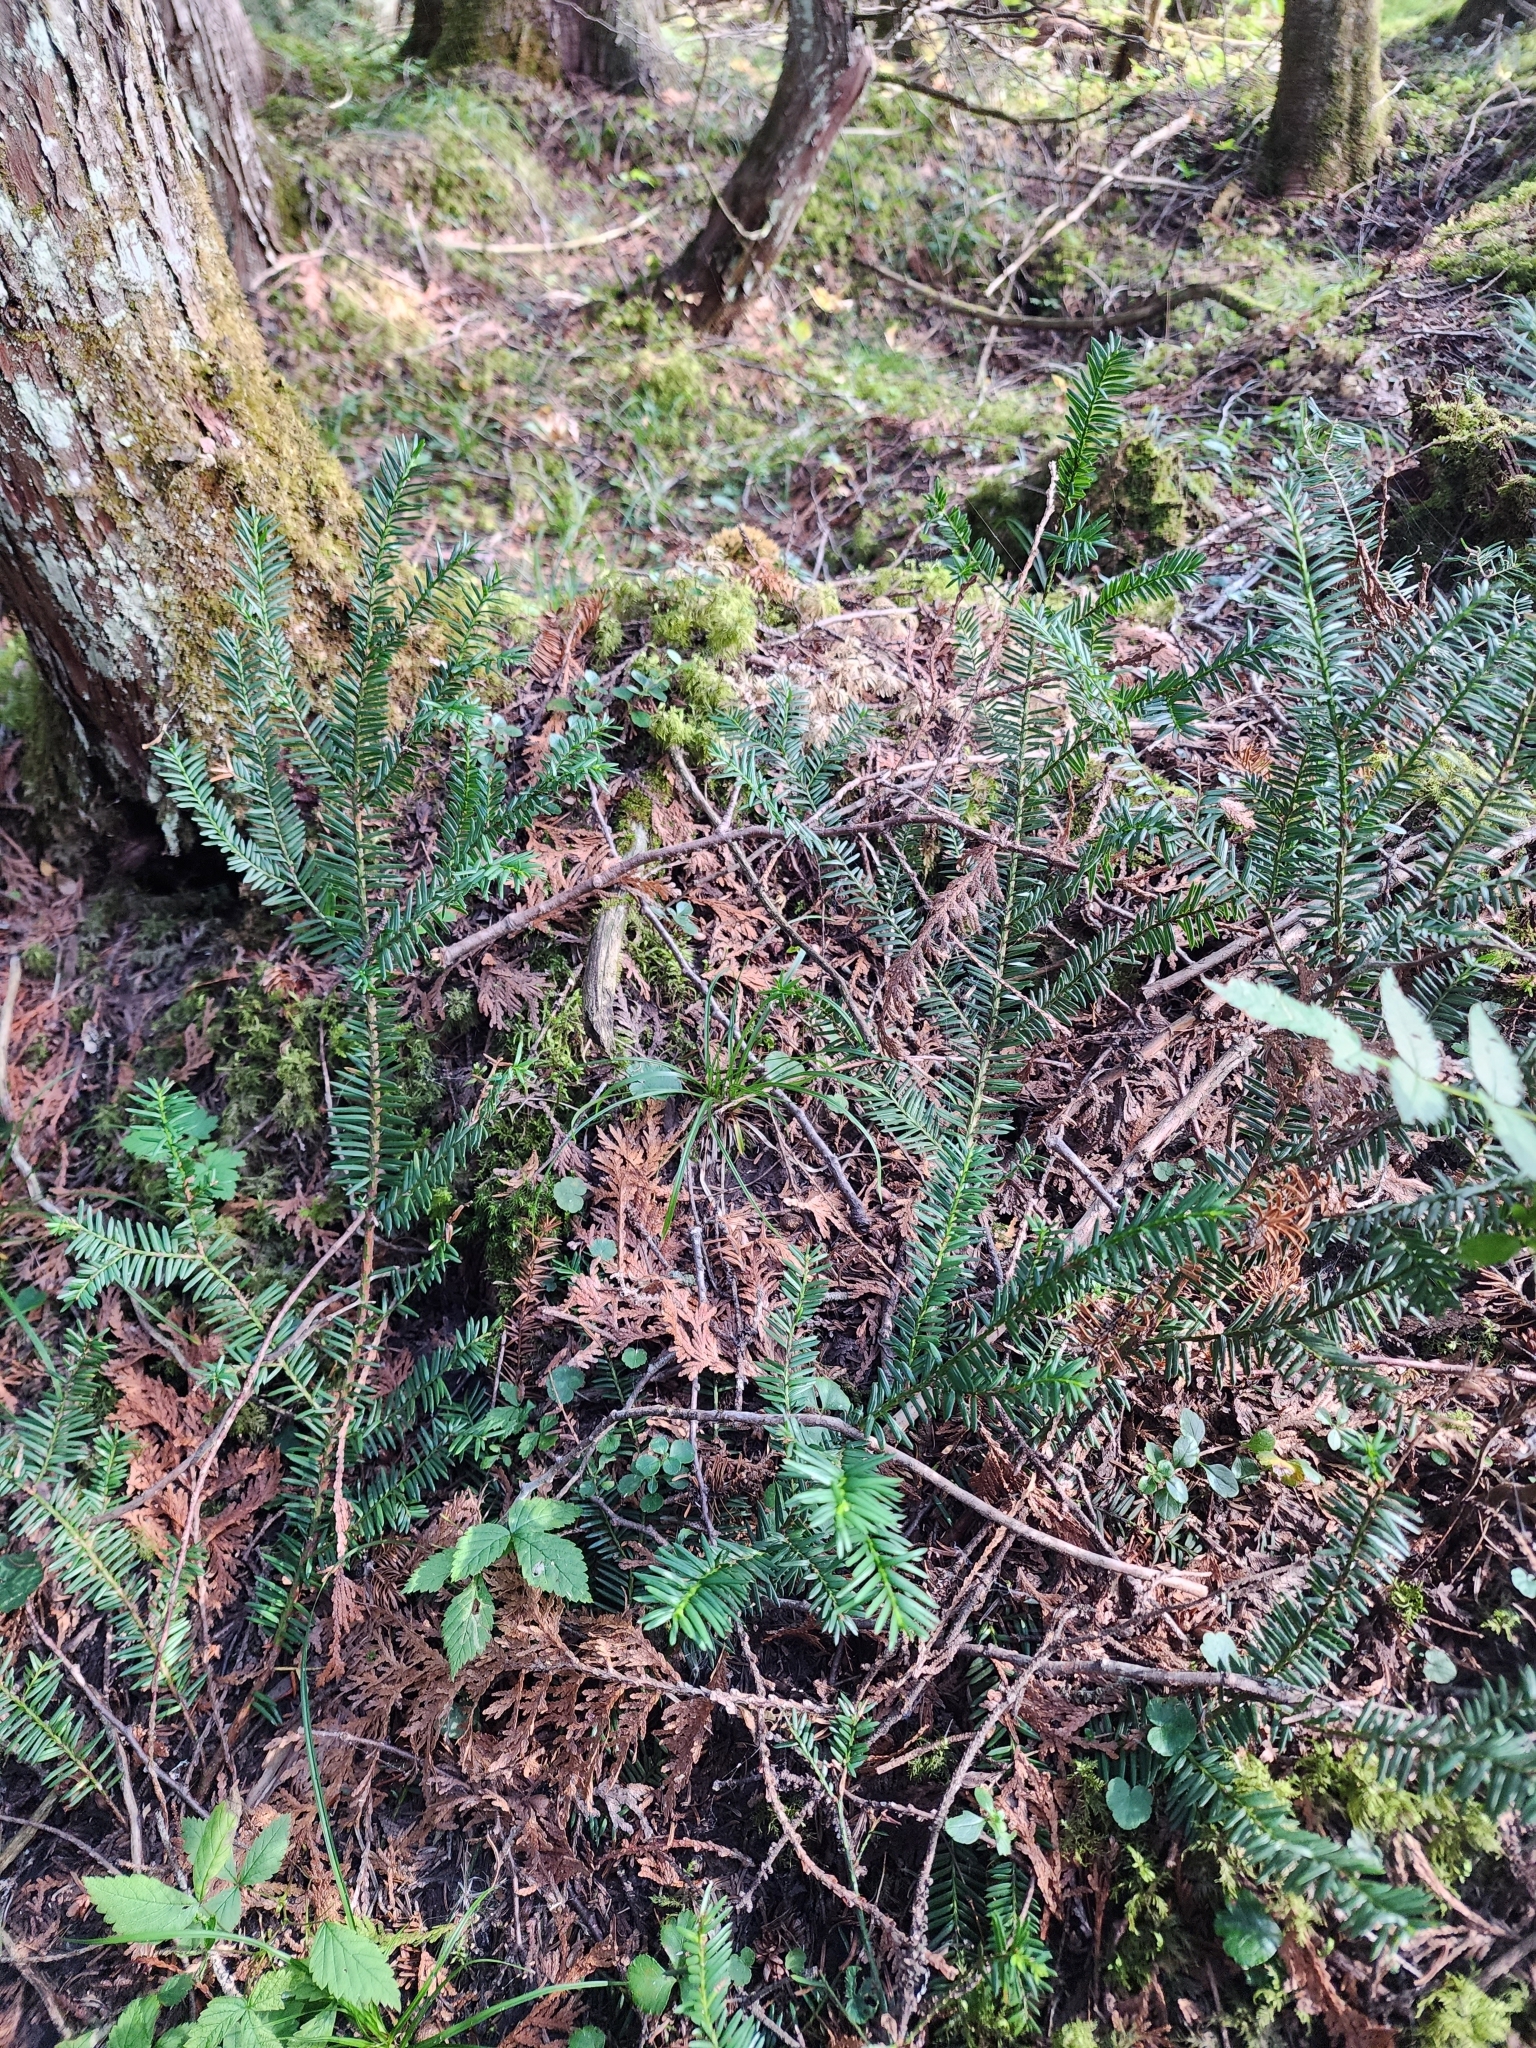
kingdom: Plantae
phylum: Tracheophyta
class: Pinopsida
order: Pinales
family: Taxaceae
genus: Taxus
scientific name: Taxus canadensis
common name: American yew
